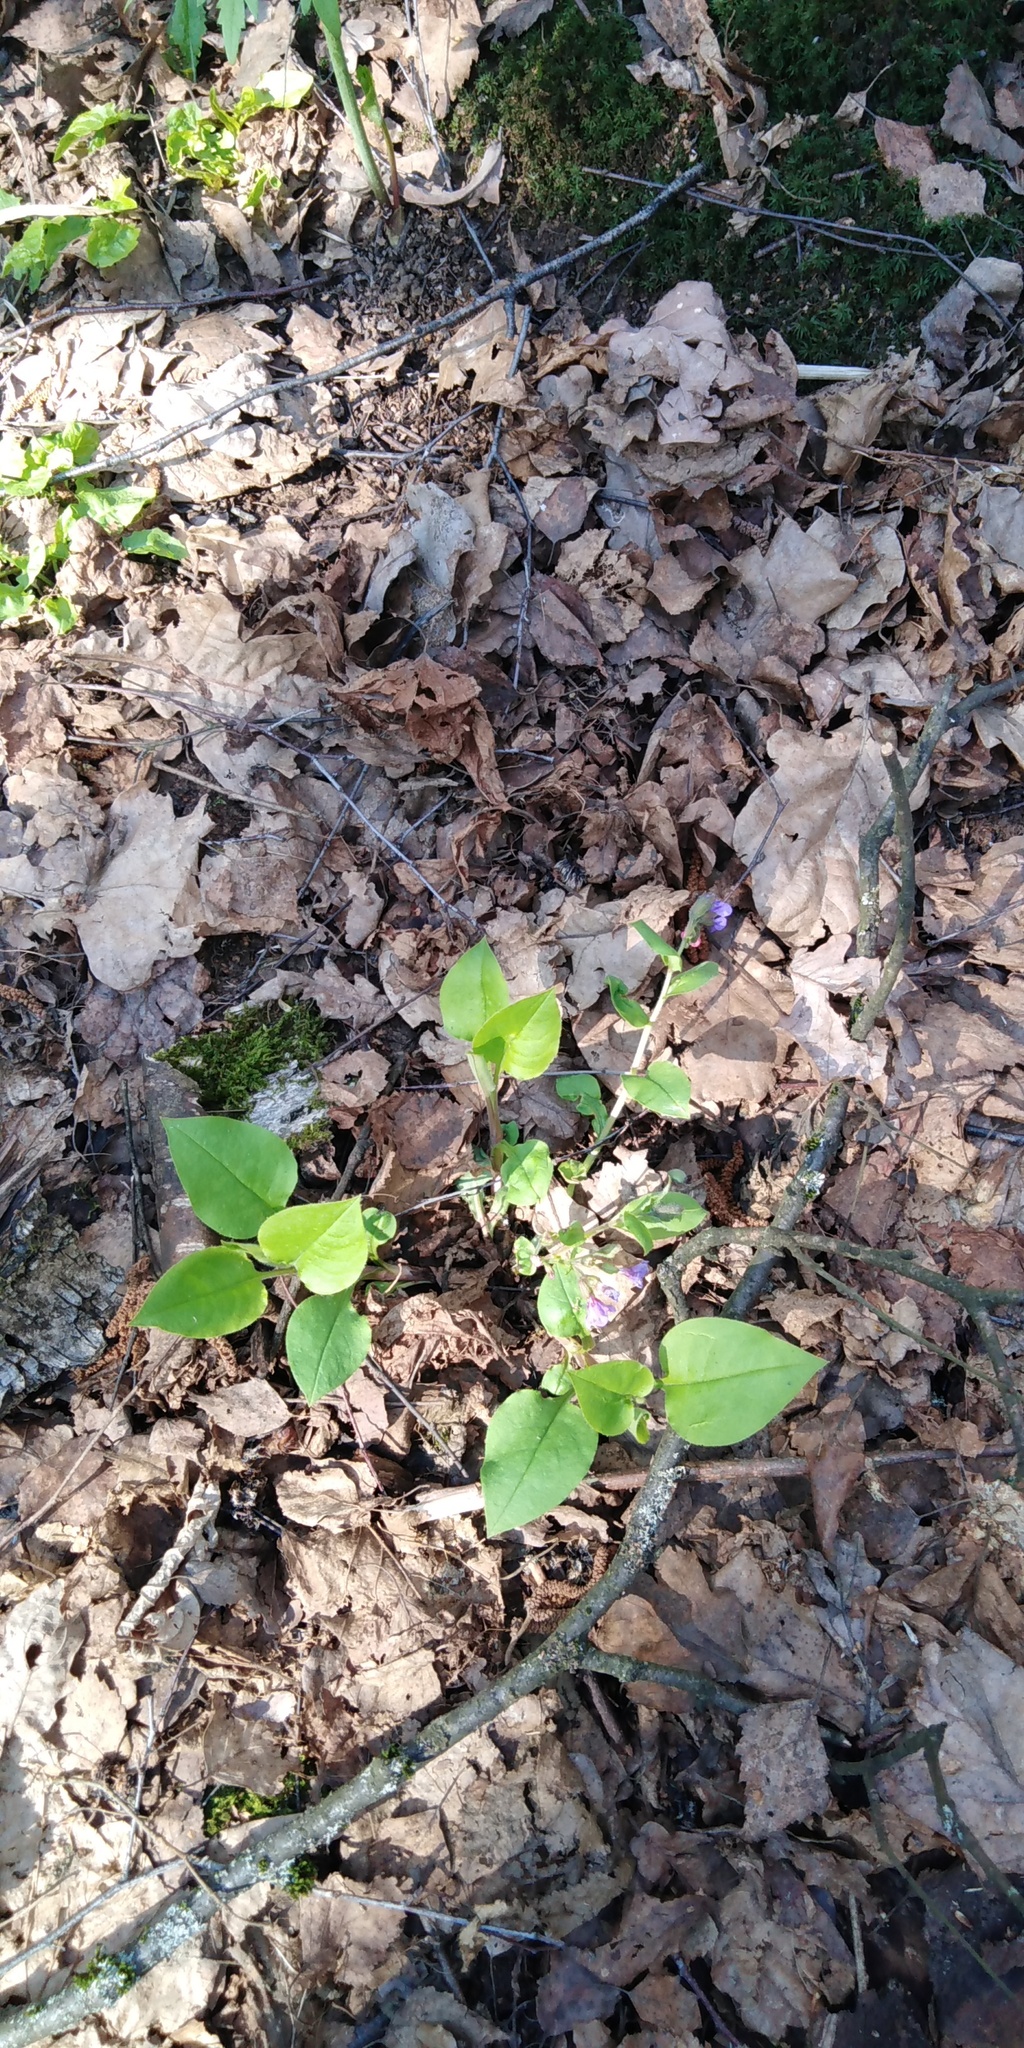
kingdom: Plantae
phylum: Tracheophyta
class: Magnoliopsida
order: Boraginales
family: Boraginaceae
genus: Pulmonaria
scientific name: Pulmonaria obscura
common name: Suffolk lungwort
